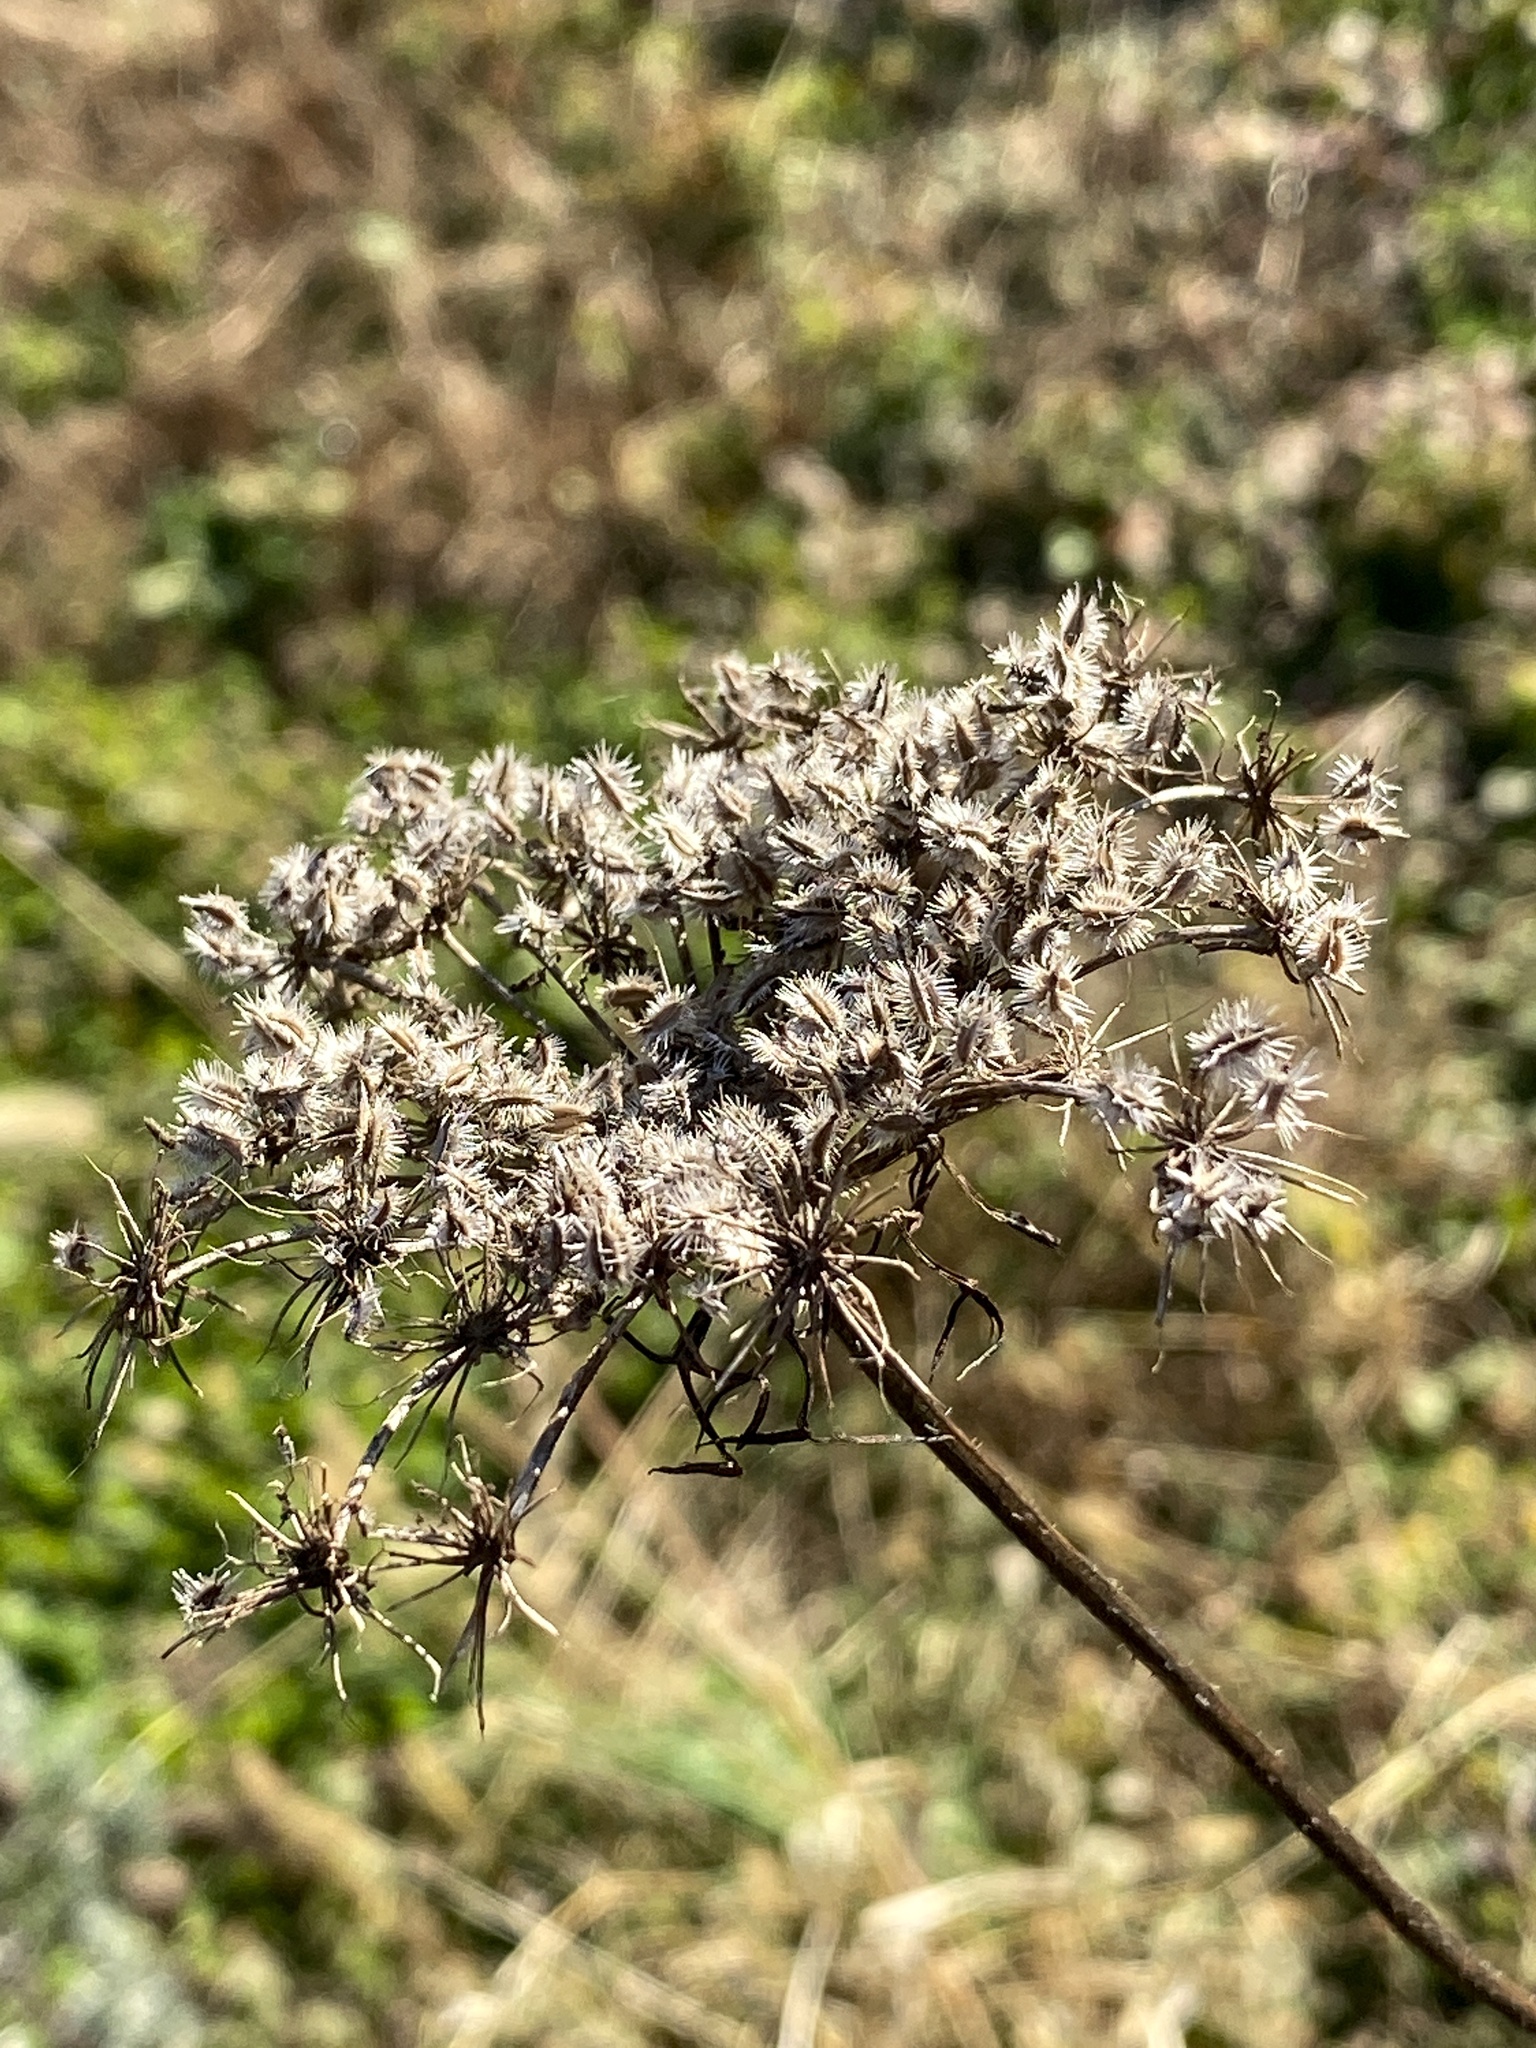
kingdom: Plantae
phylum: Tracheophyta
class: Magnoliopsida
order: Apiales
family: Apiaceae
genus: Daucus
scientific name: Daucus carota
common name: Wild carrot
